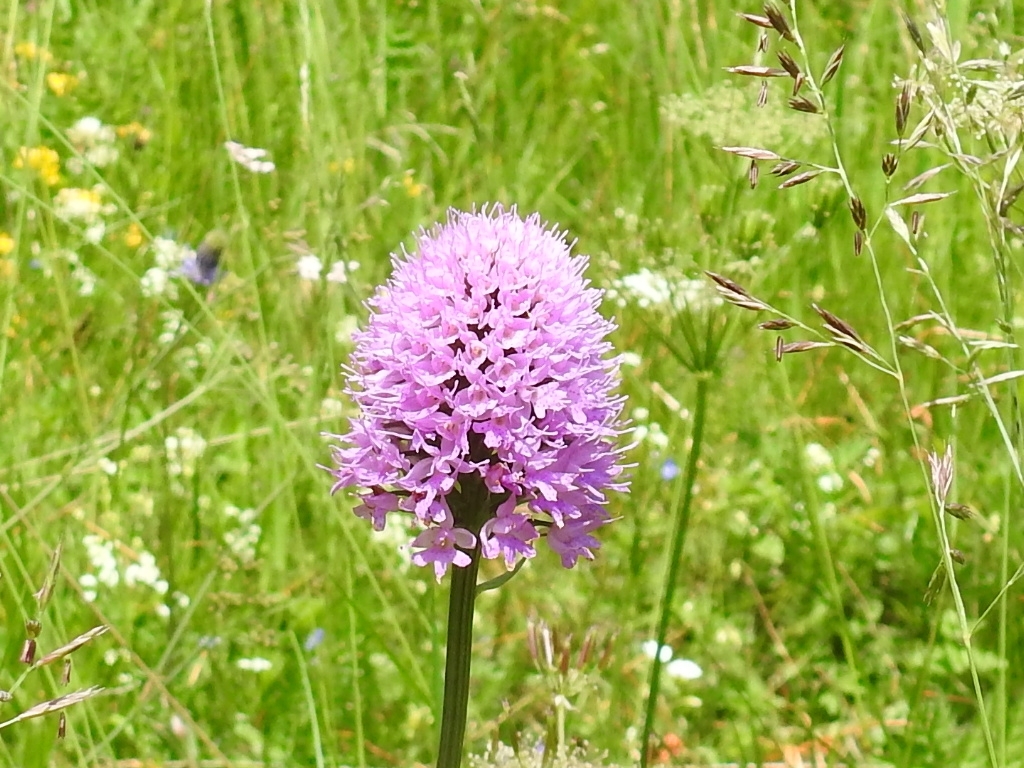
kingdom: Plantae
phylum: Tracheophyta
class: Liliopsida
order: Asparagales
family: Orchidaceae
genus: Traunsteinera
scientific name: Traunsteinera globosa
